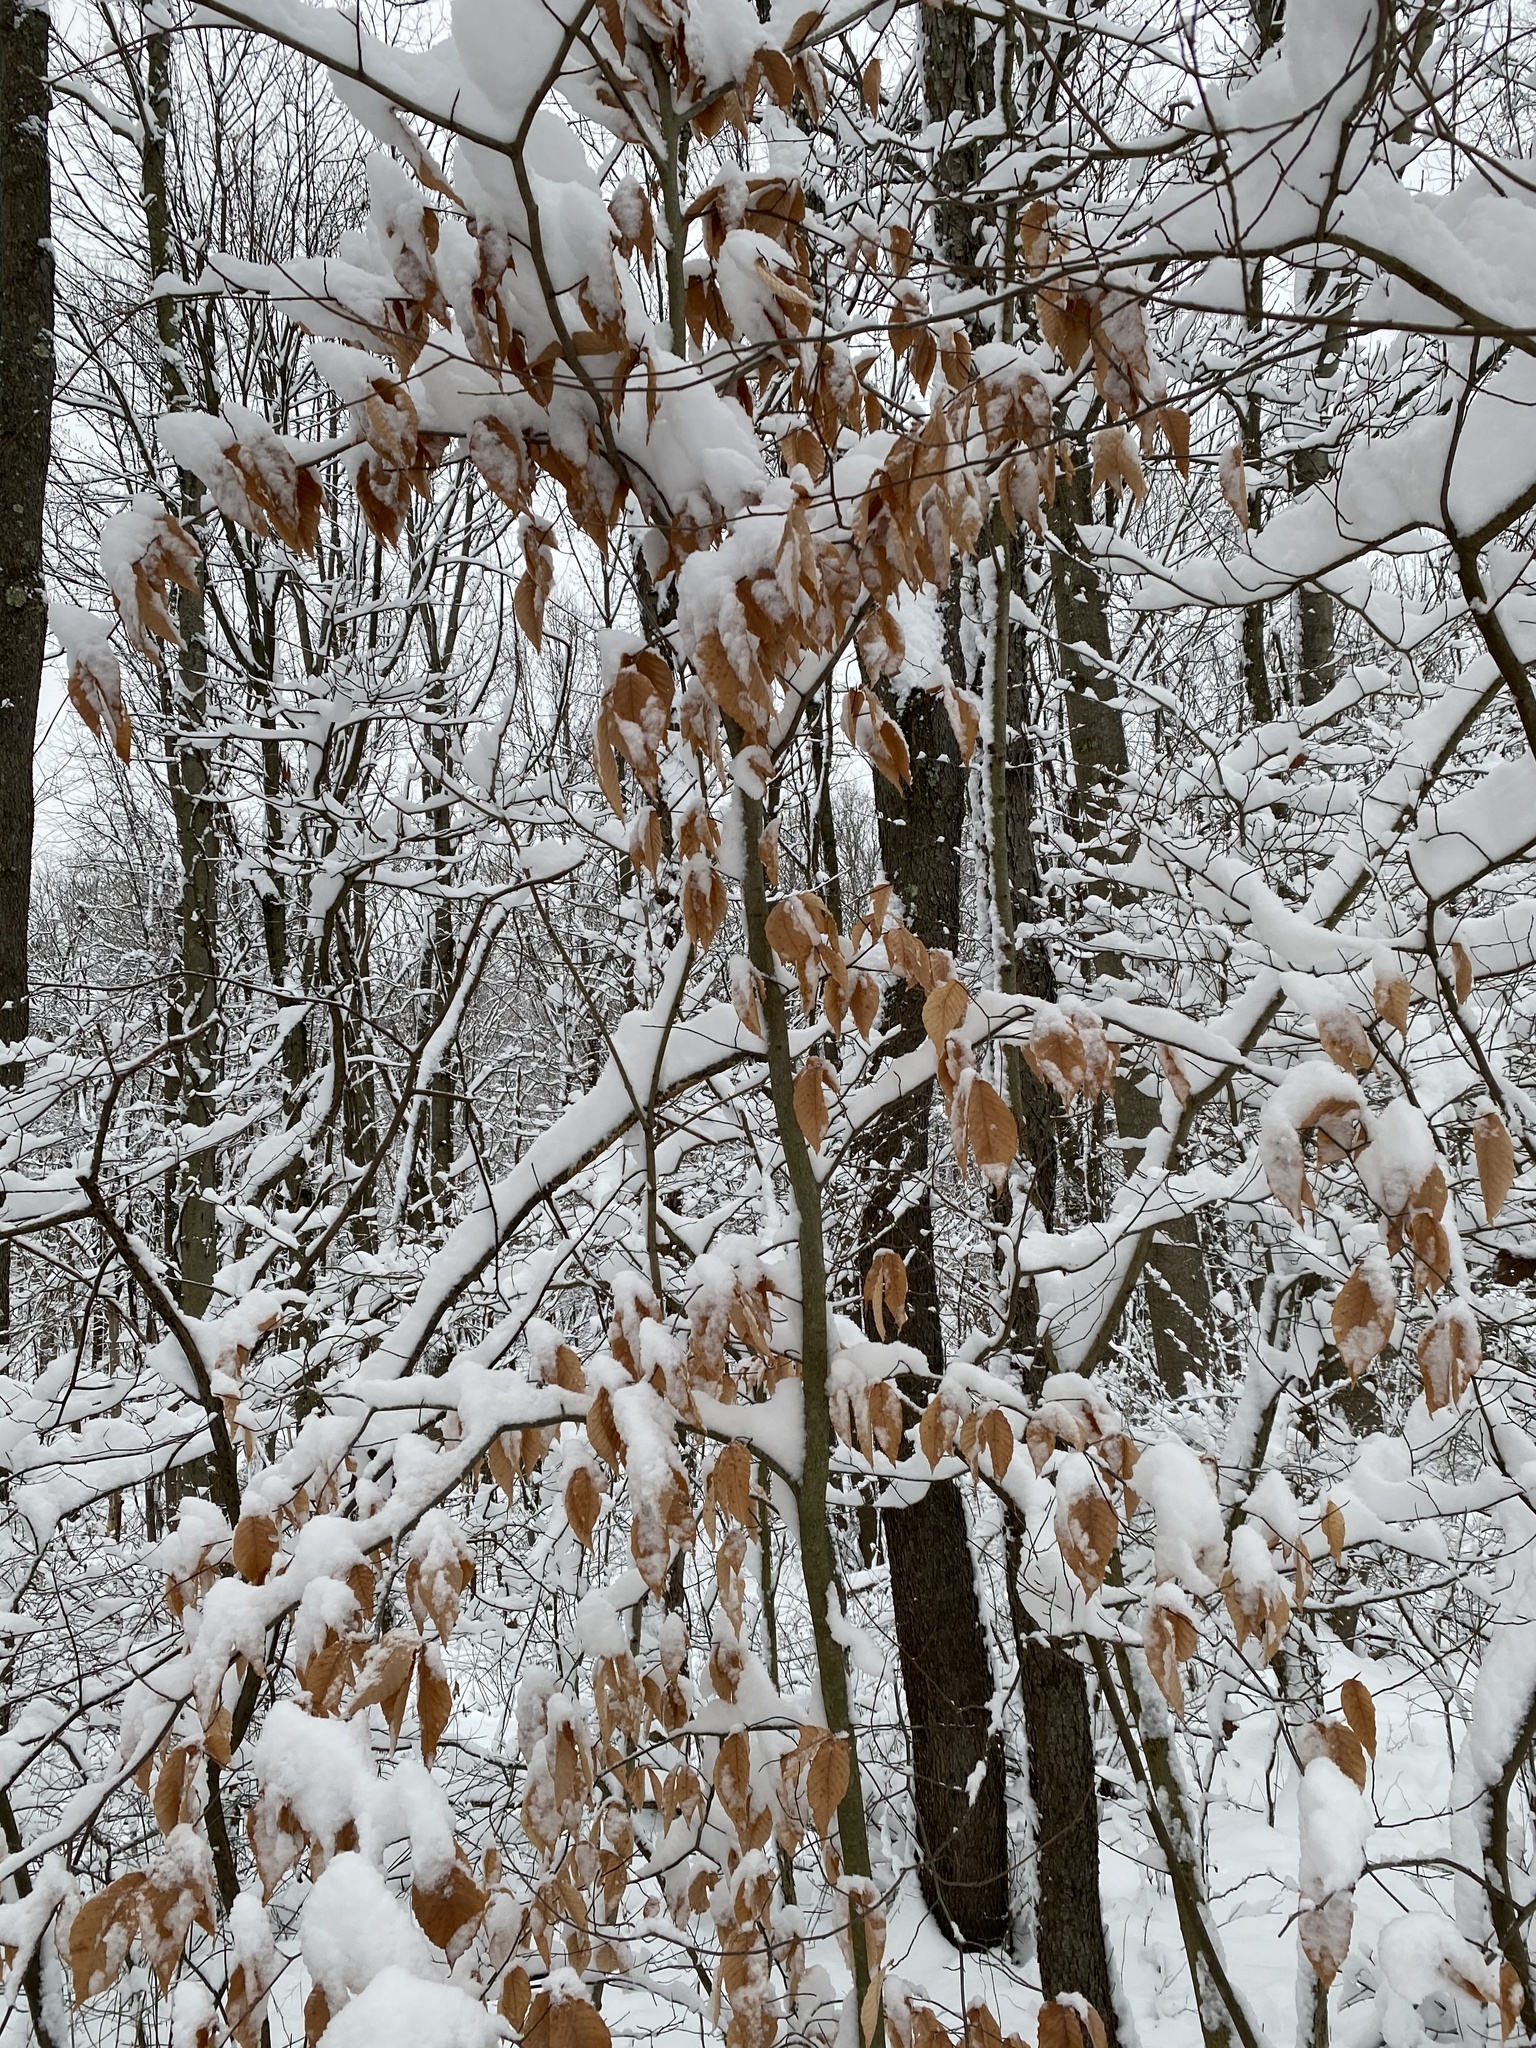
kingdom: Plantae
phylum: Tracheophyta
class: Magnoliopsida
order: Fagales
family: Fagaceae
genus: Fagus
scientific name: Fagus grandifolia
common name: American beech
